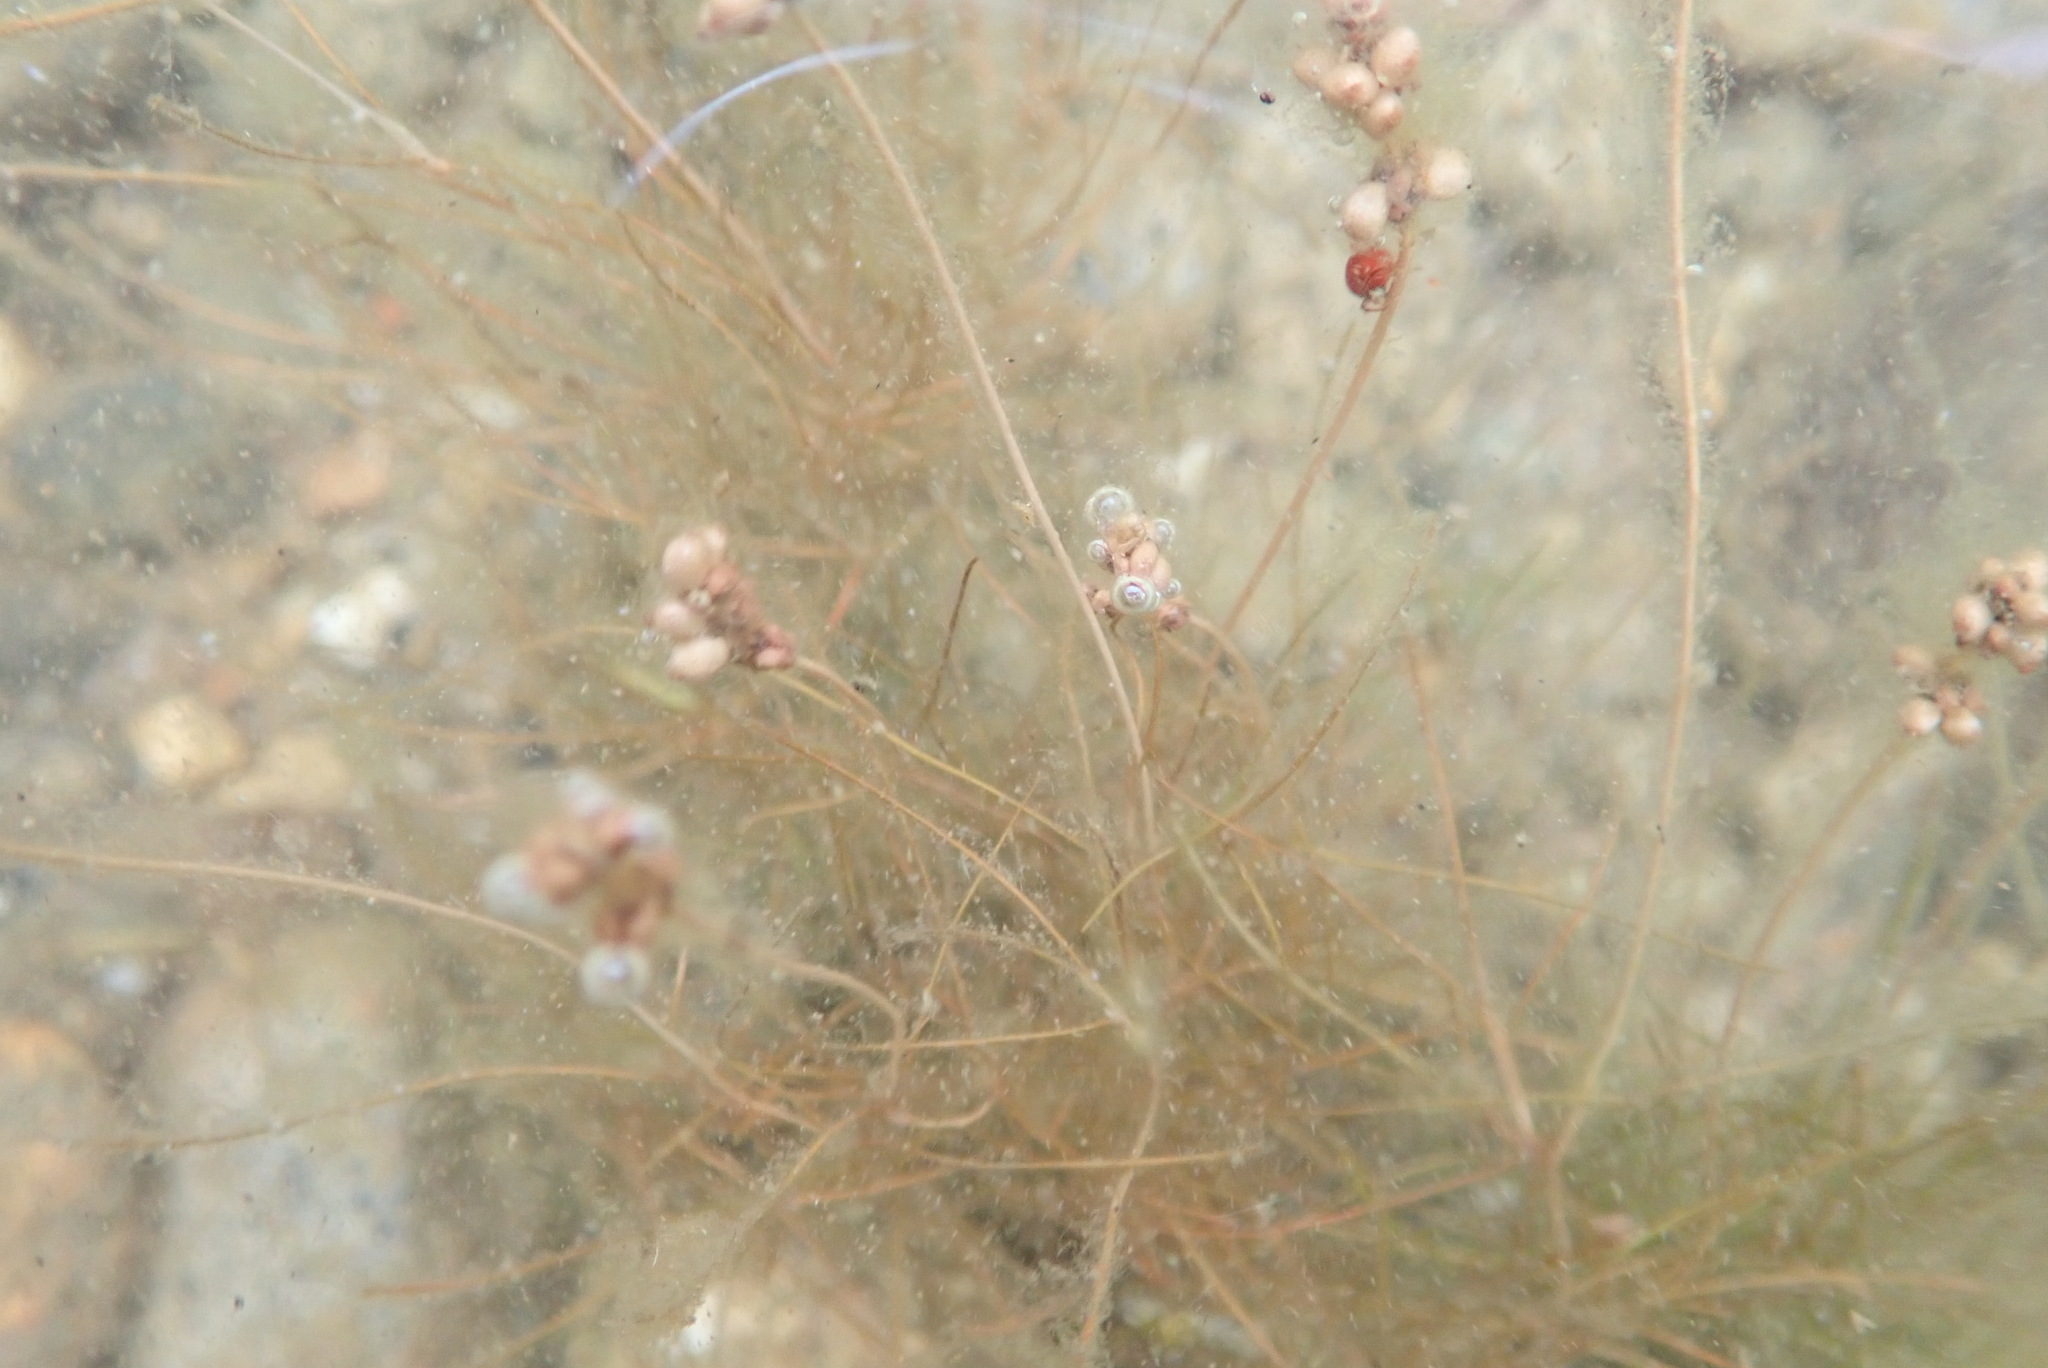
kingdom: Plantae
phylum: Tracheophyta
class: Liliopsida
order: Alismatales
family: Potamogetonaceae
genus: Stuckenia
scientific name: Stuckenia filiformis
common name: Alpine thread-leaved pondweed
